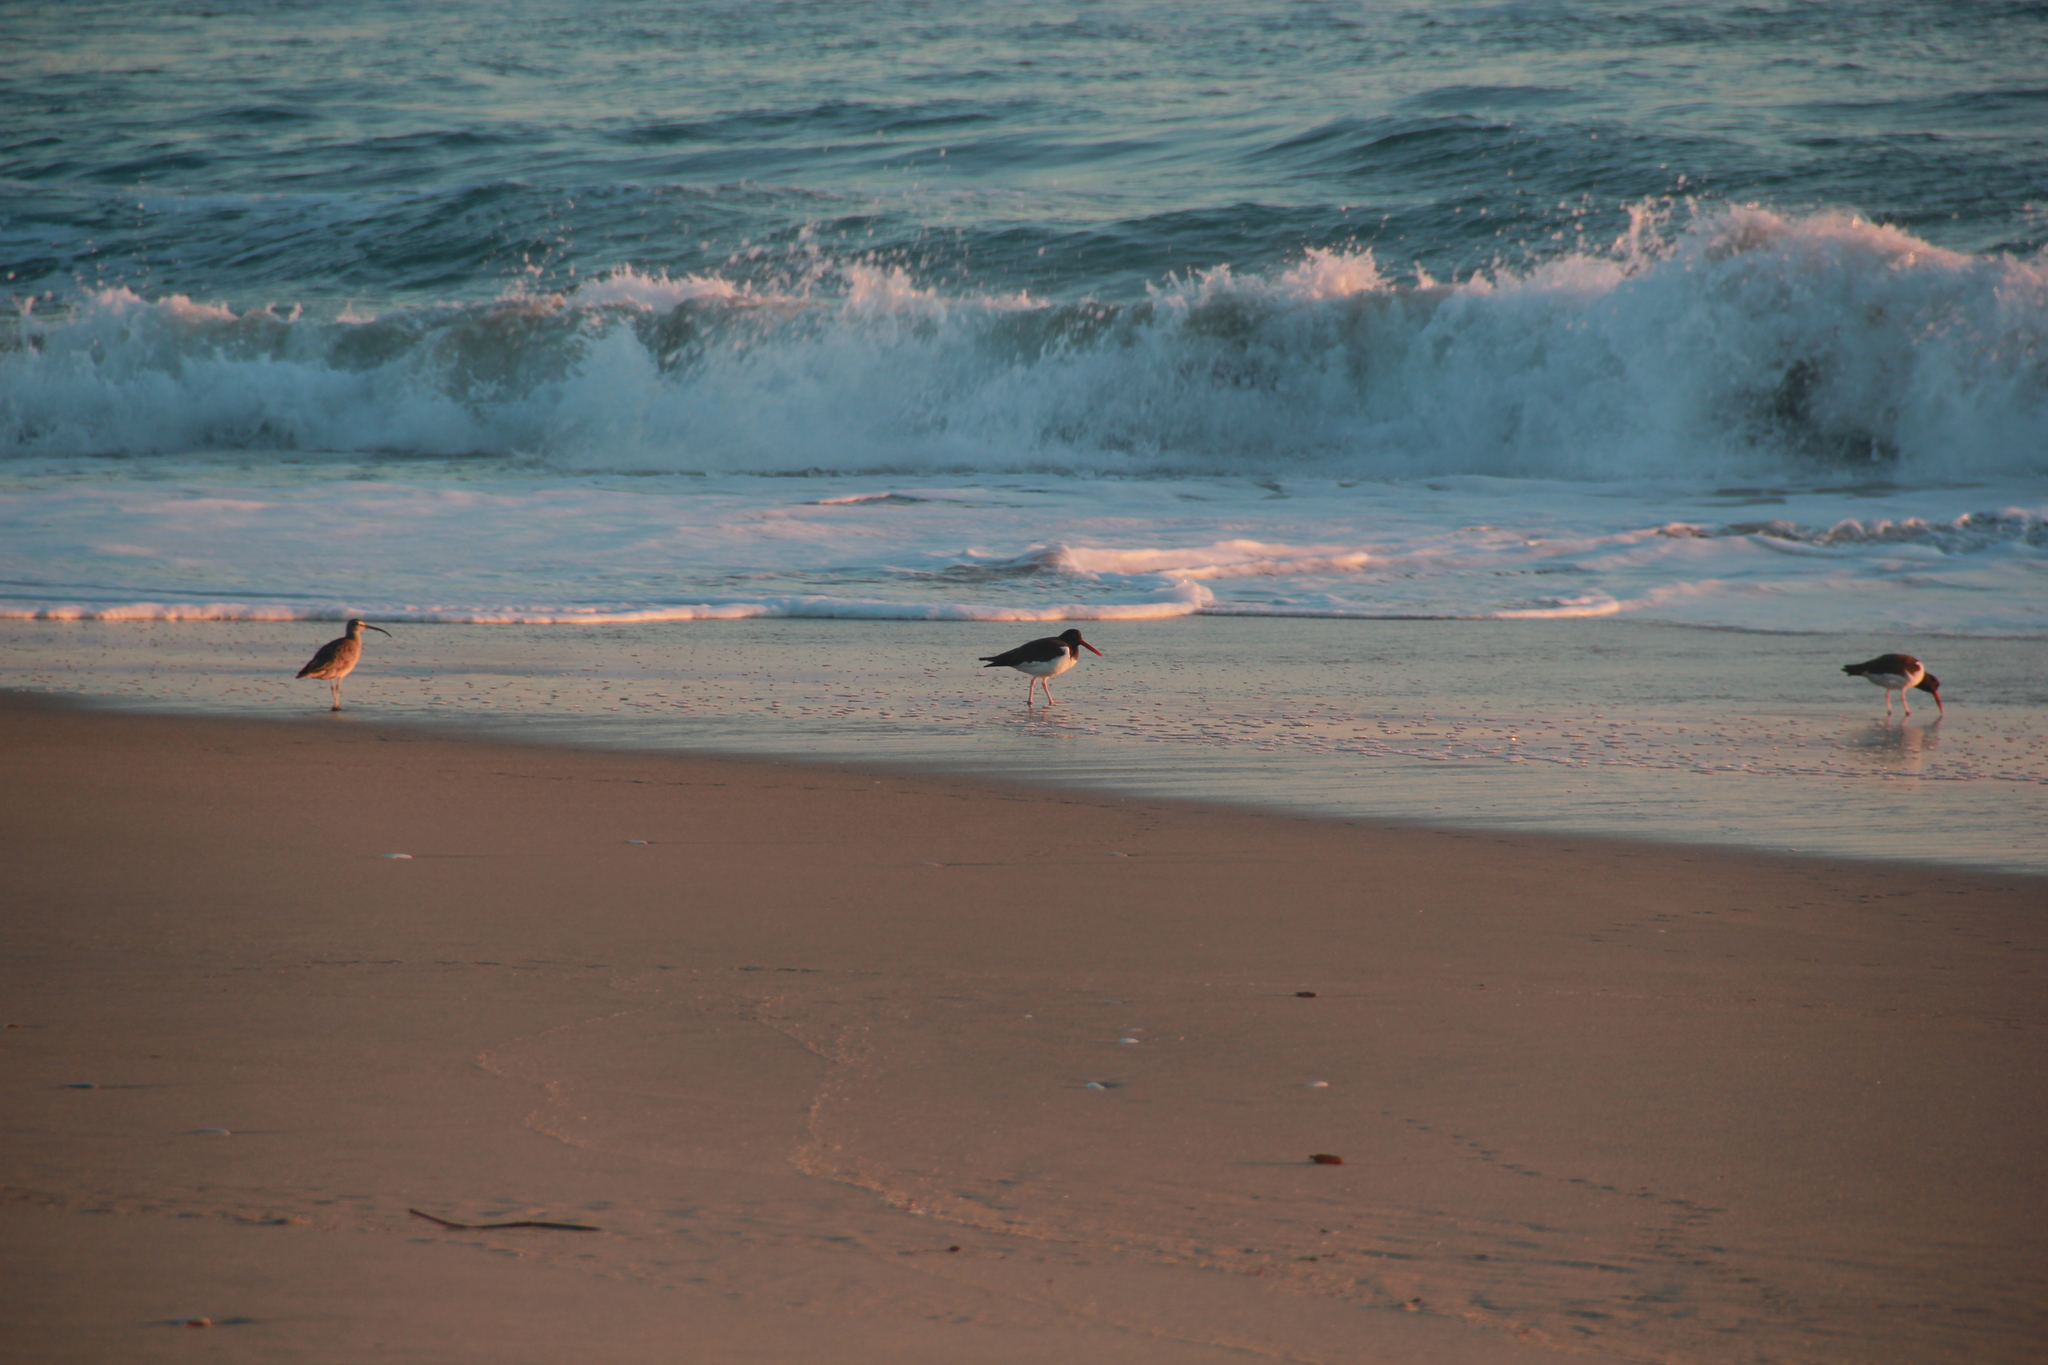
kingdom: Animalia
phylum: Chordata
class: Aves
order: Charadriiformes
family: Haematopodidae
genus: Haematopus
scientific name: Haematopus palliatus
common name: American oystercatcher
